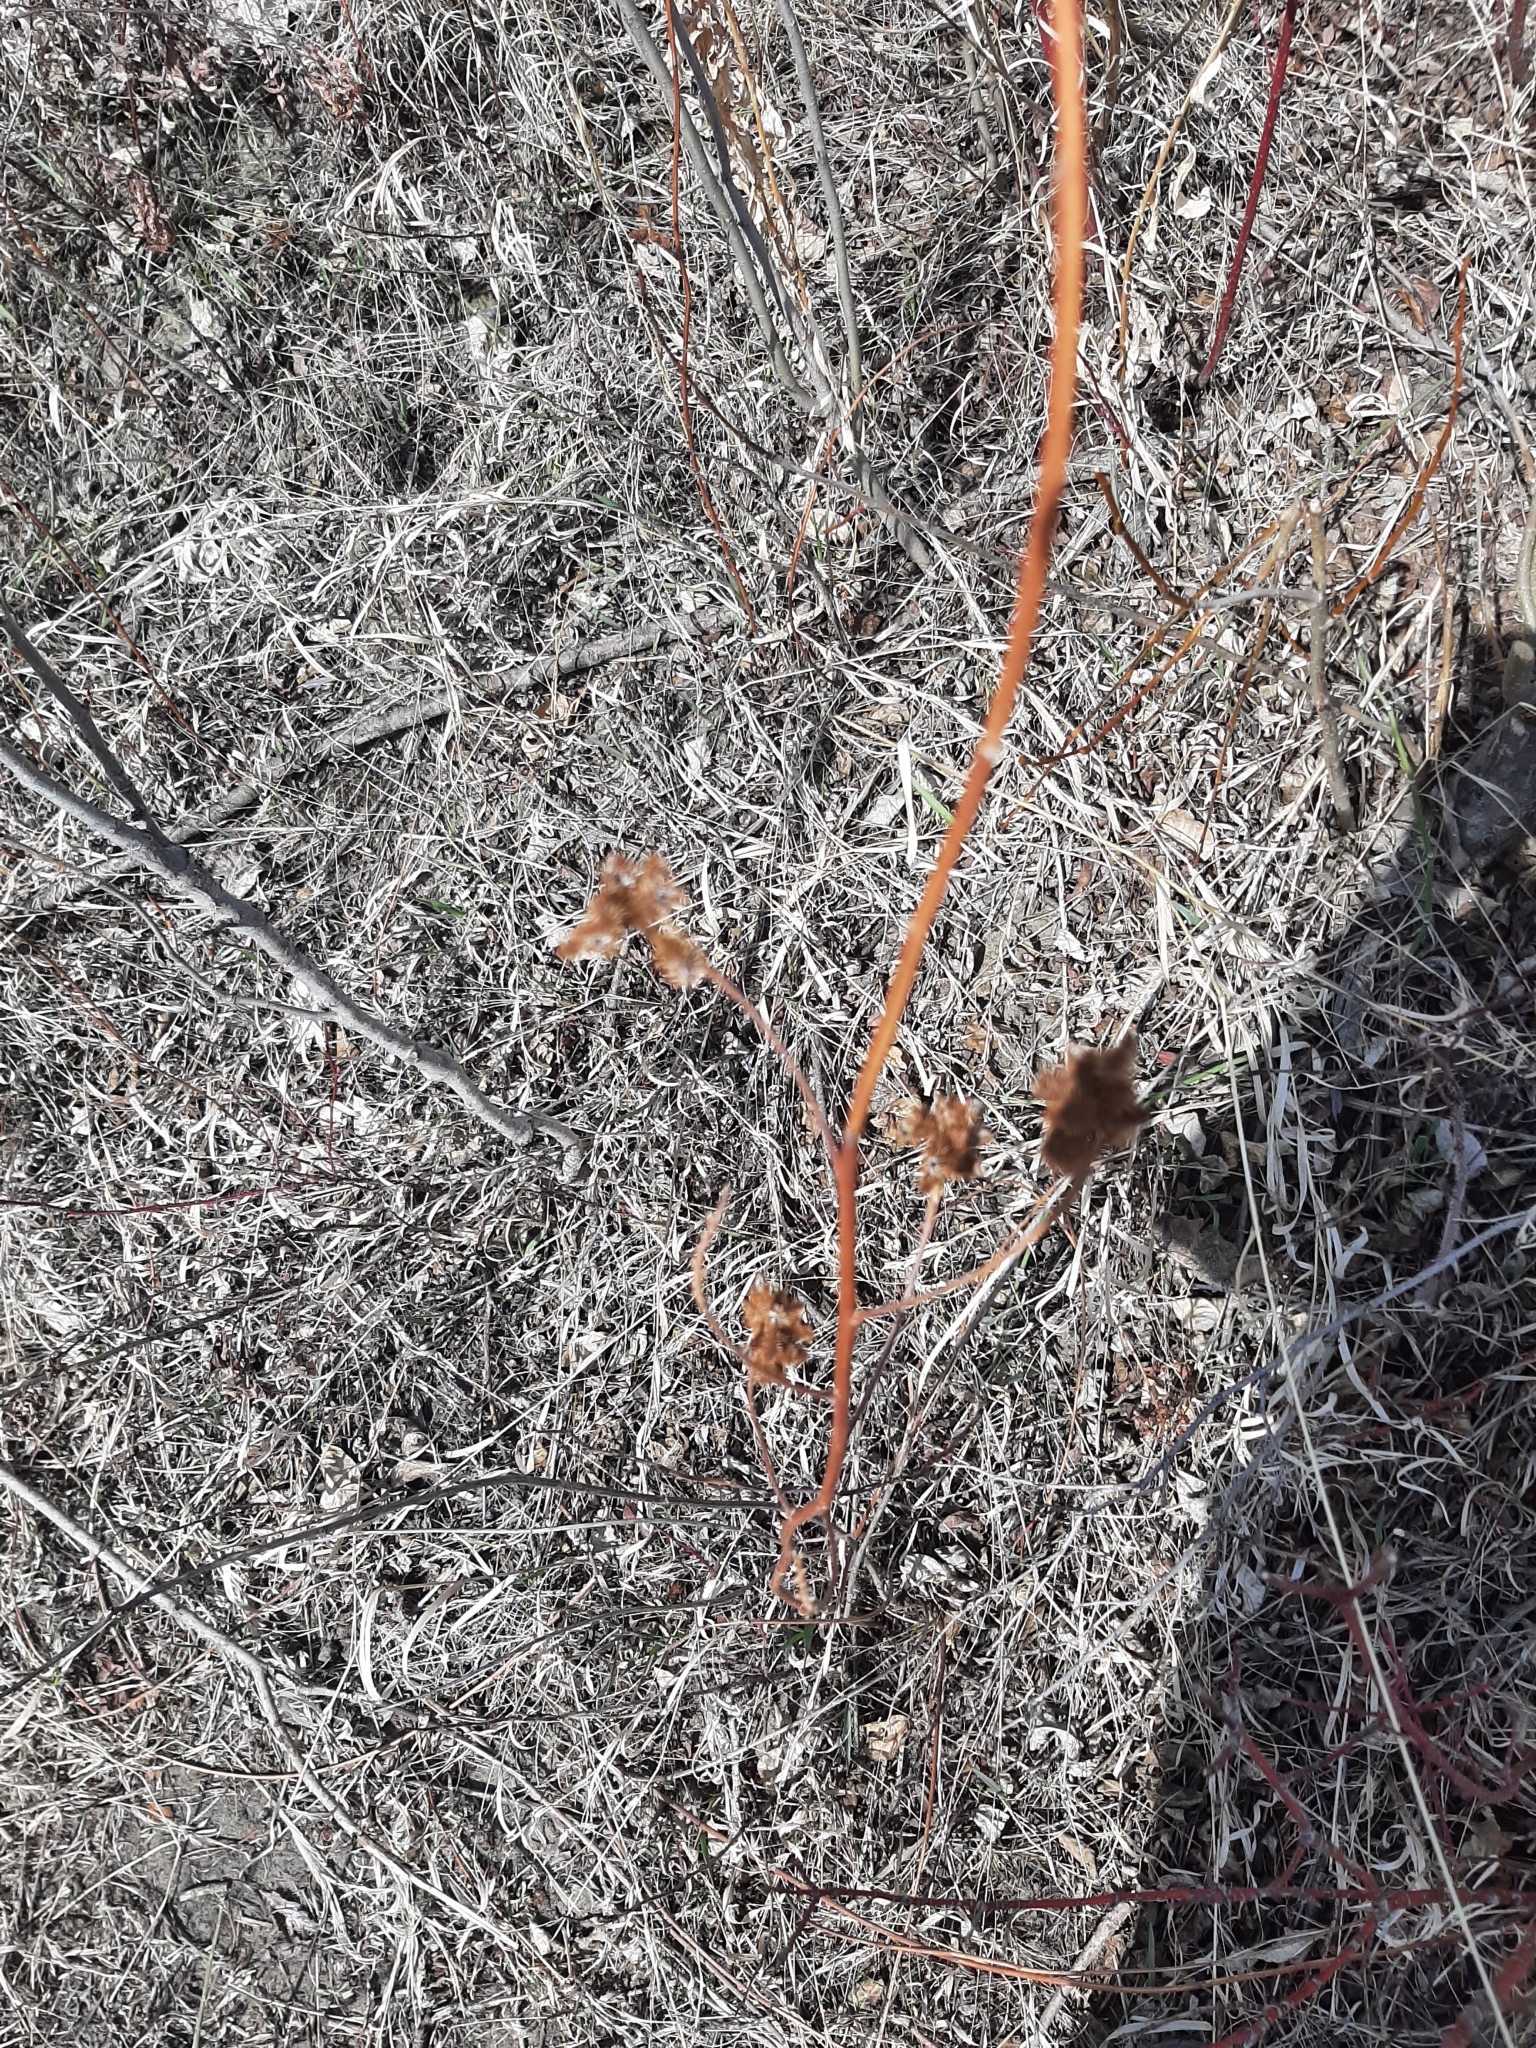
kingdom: Plantae
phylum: Tracheophyta
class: Magnoliopsida
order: Fabales
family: Fabaceae
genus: Glycyrrhiza
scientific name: Glycyrrhiza lepidota
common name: American liquorice
